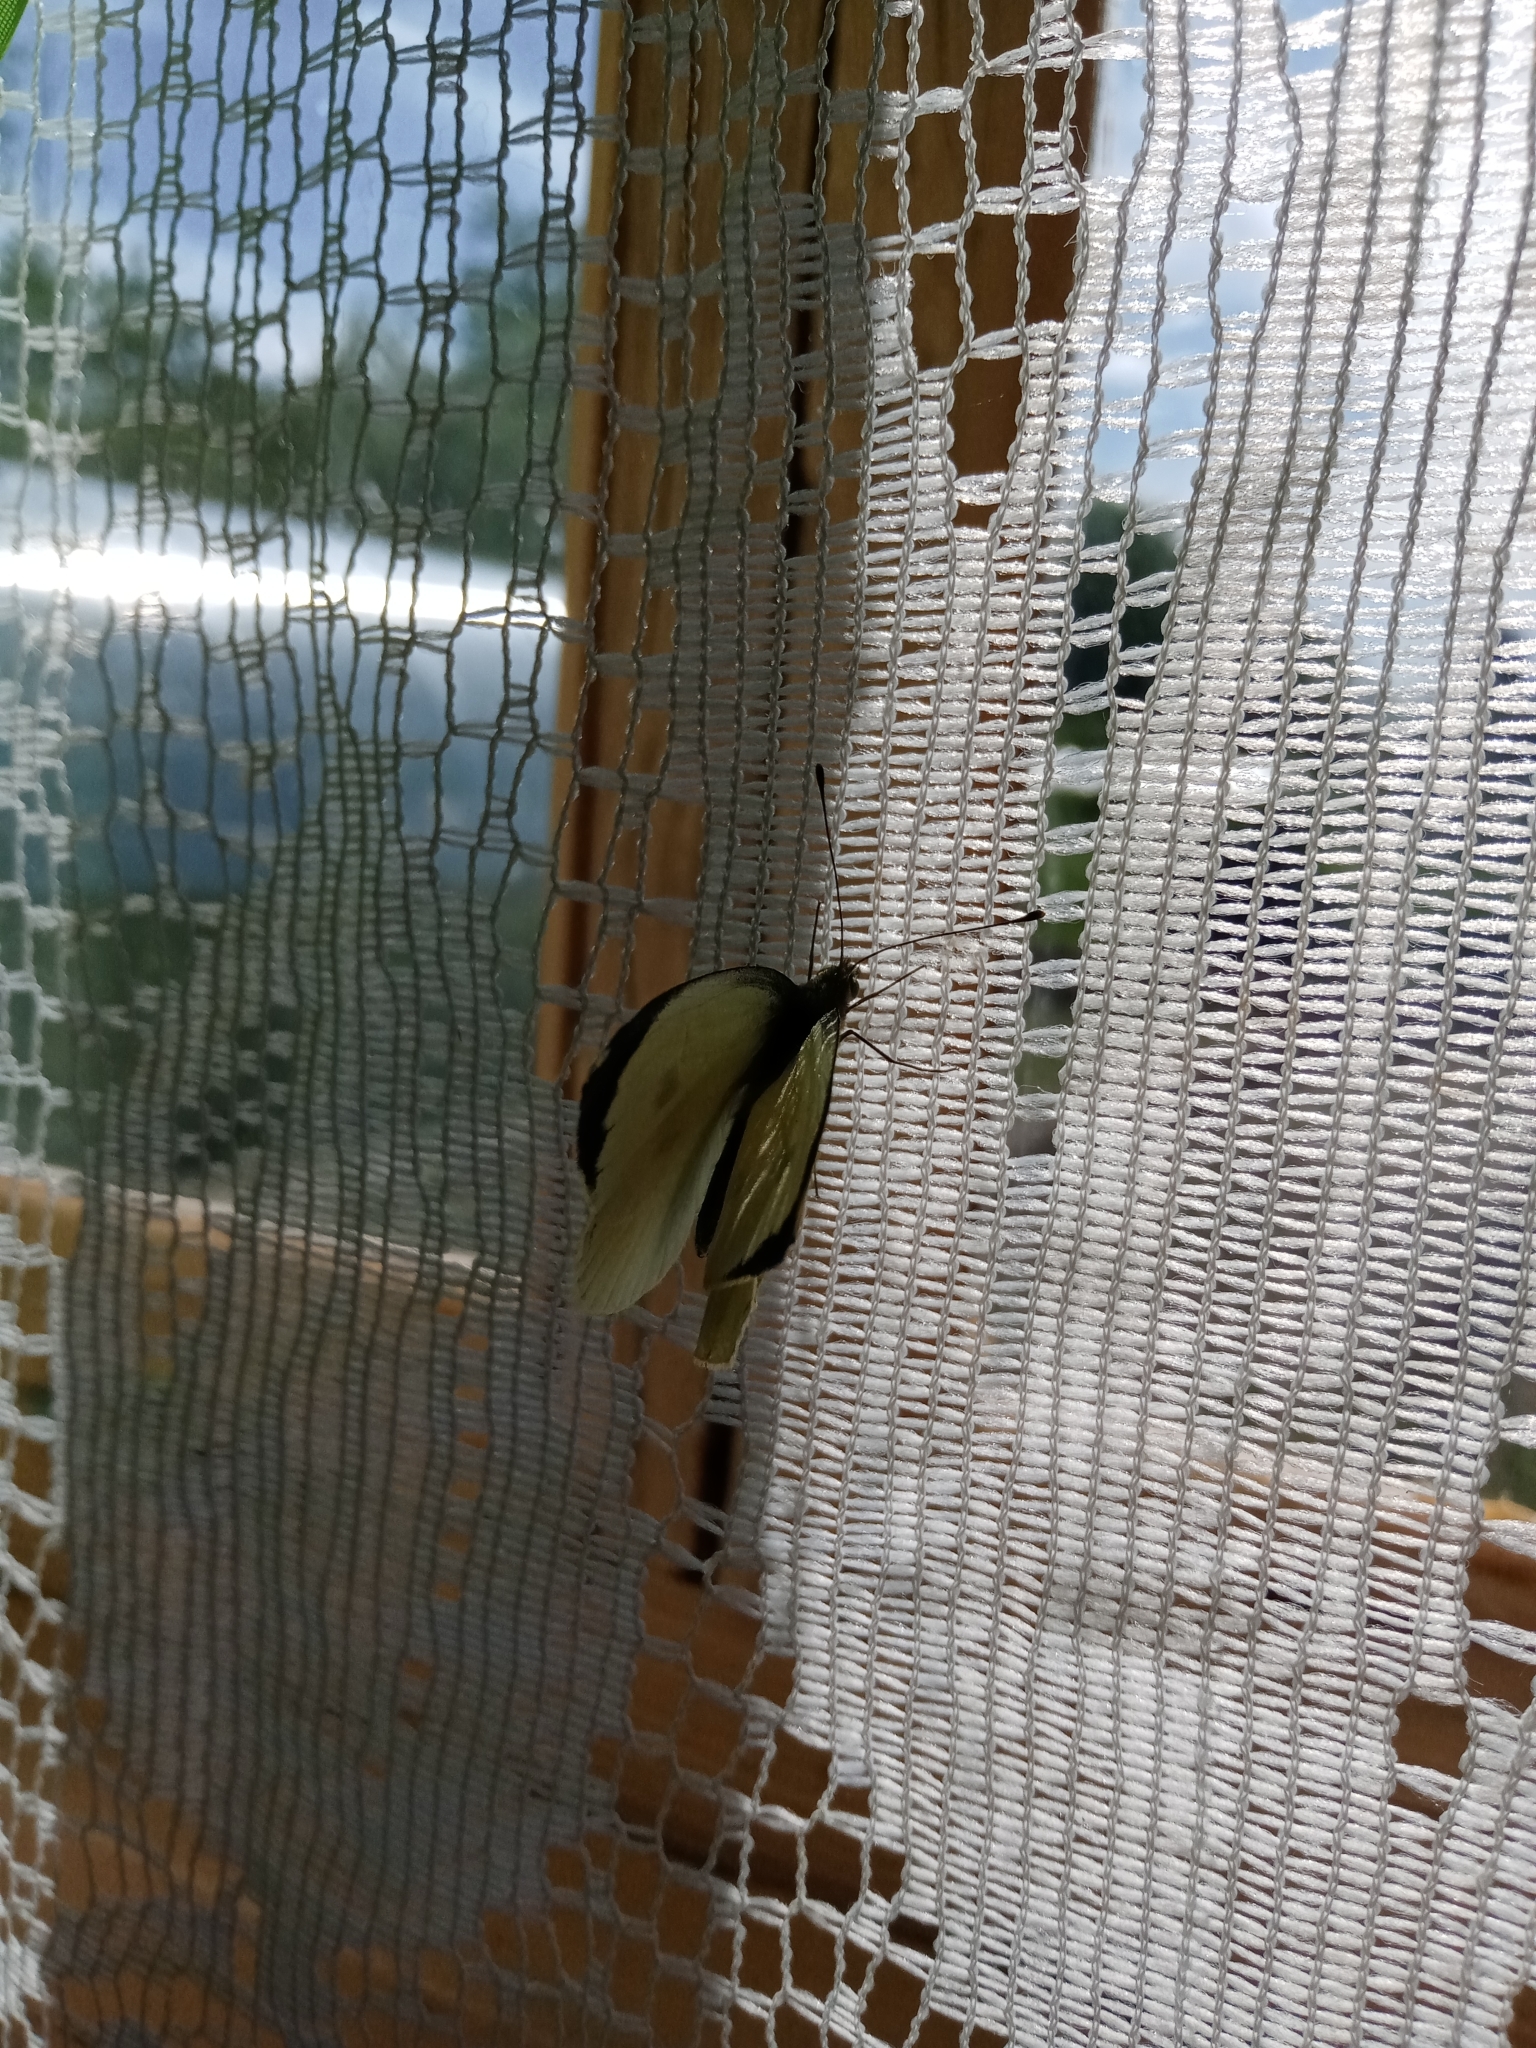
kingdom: Animalia
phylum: Arthropoda
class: Insecta
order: Lepidoptera
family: Pieridae
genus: Pieris
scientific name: Pieris brassicae
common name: Large white
